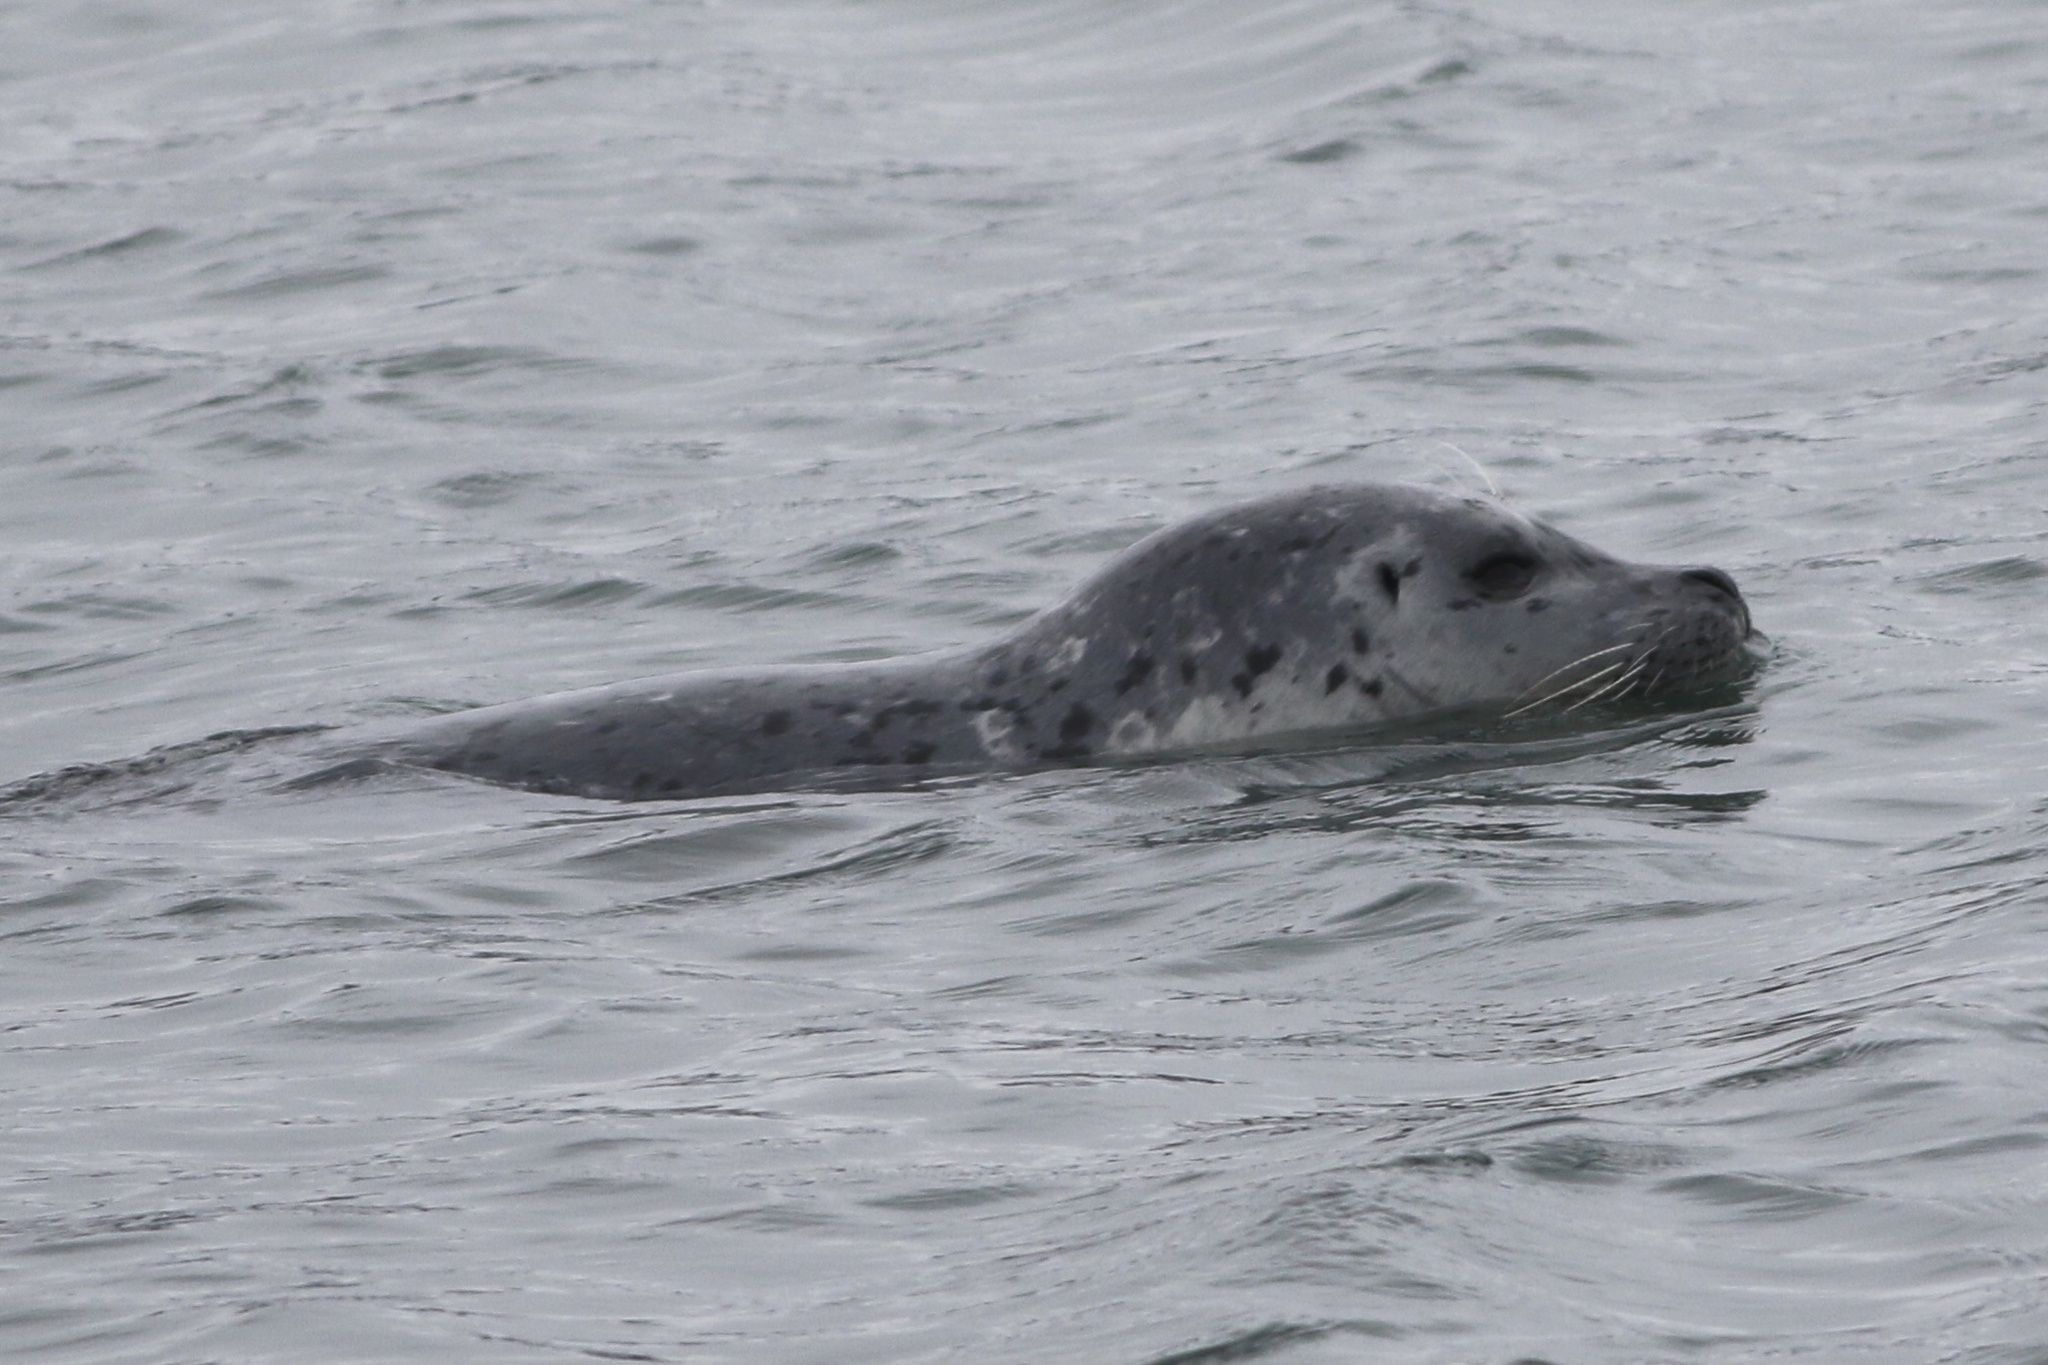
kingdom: Animalia
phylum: Chordata
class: Mammalia
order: Carnivora
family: Phocidae
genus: Phoca
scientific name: Phoca vitulina
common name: Harbor seal
